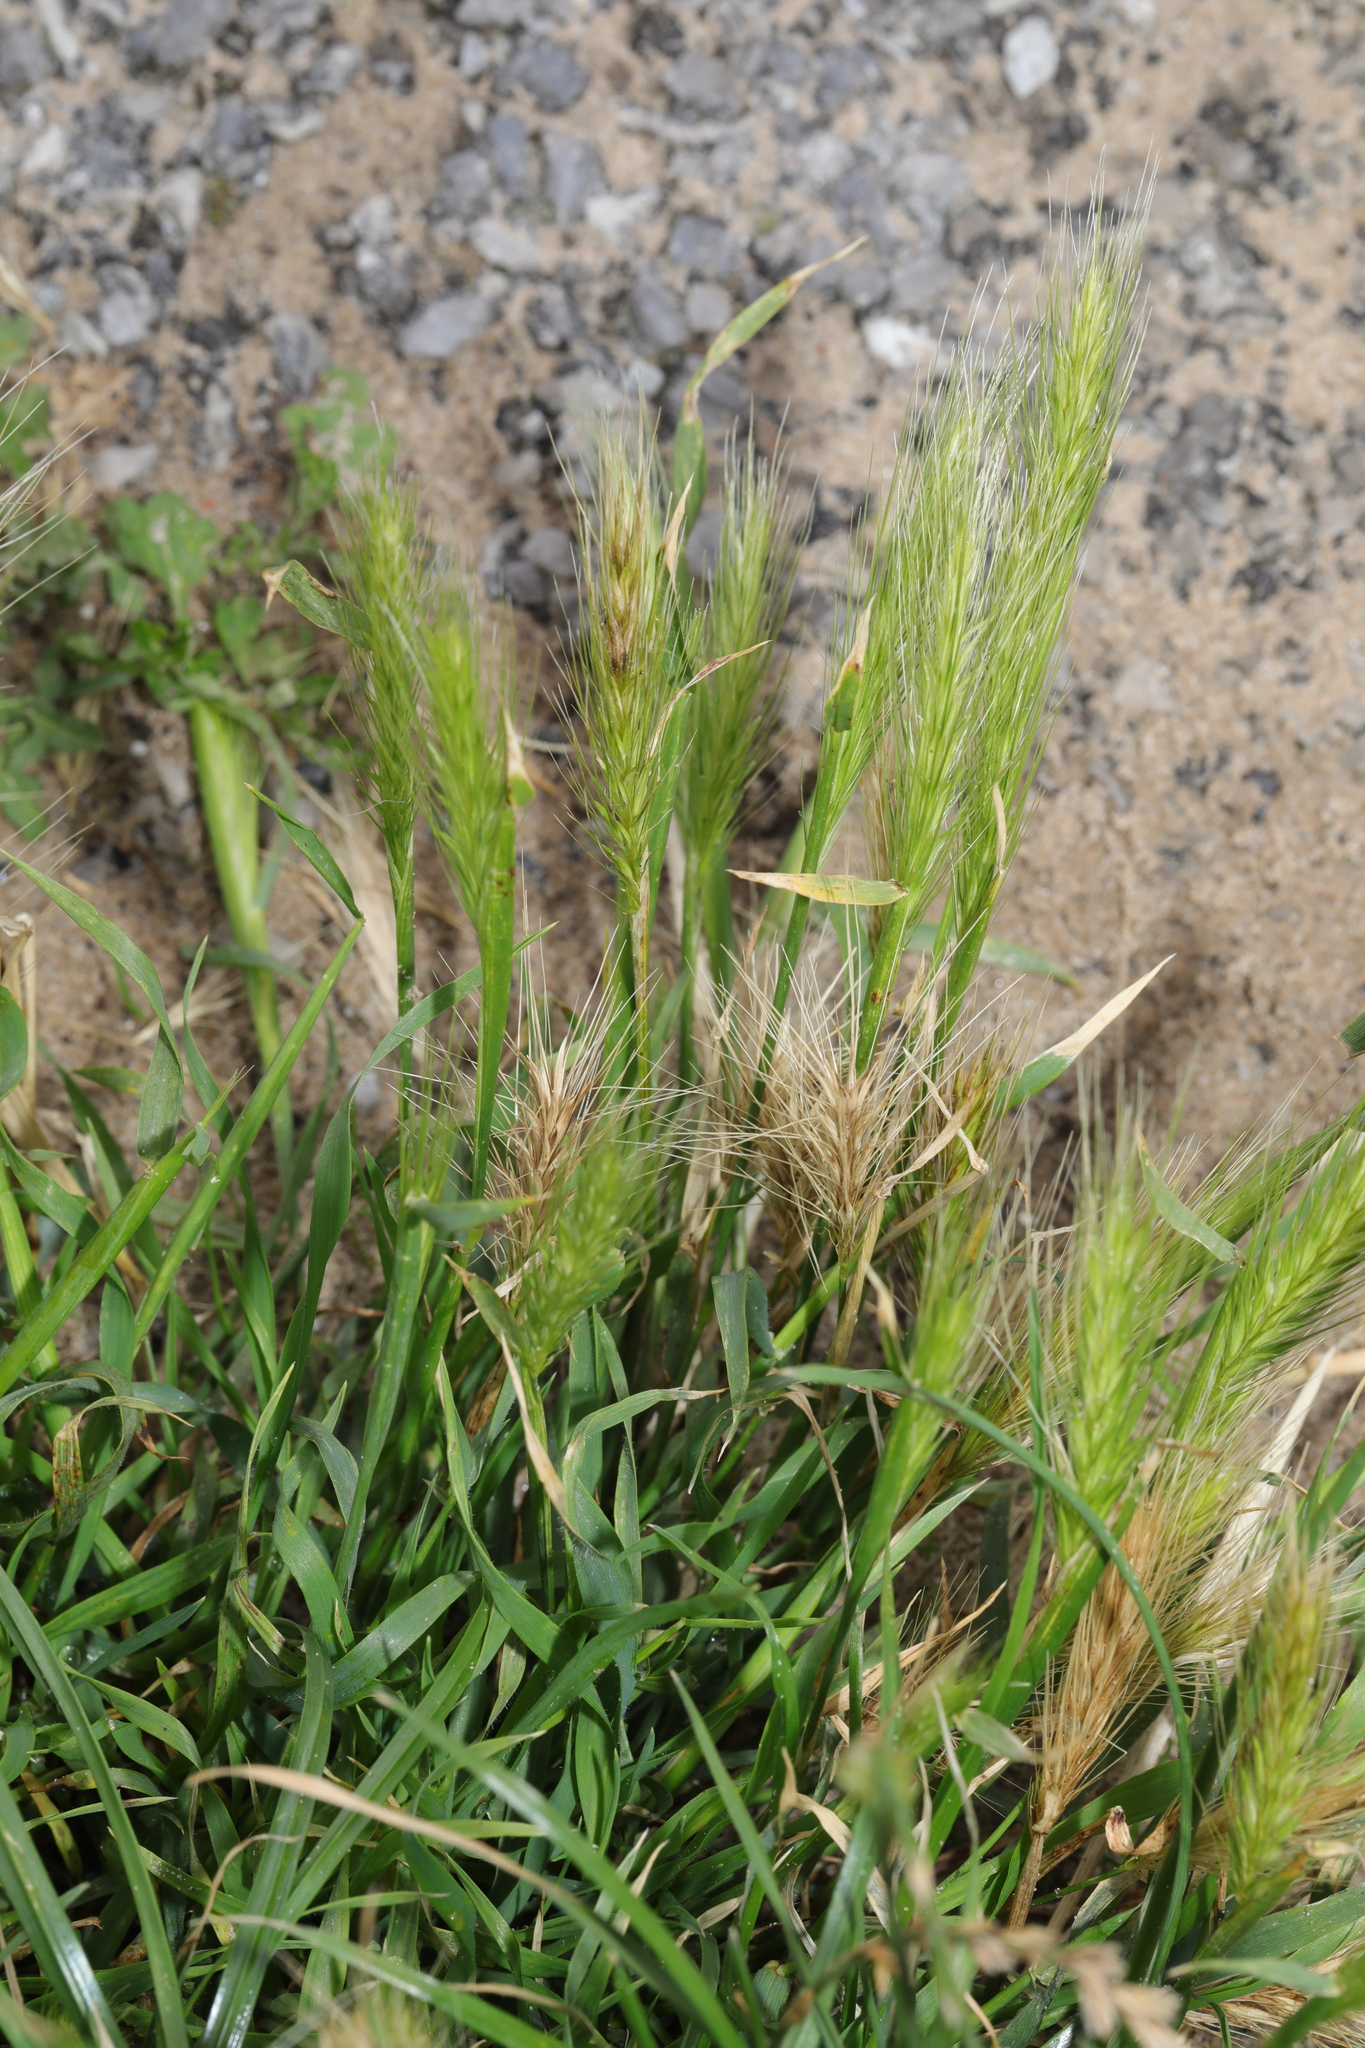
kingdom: Plantae
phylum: Tracheophyta
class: Liliopsida
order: Poales
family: Poaceae
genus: Hordeum
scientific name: Hordeum murinum
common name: Wall barley
